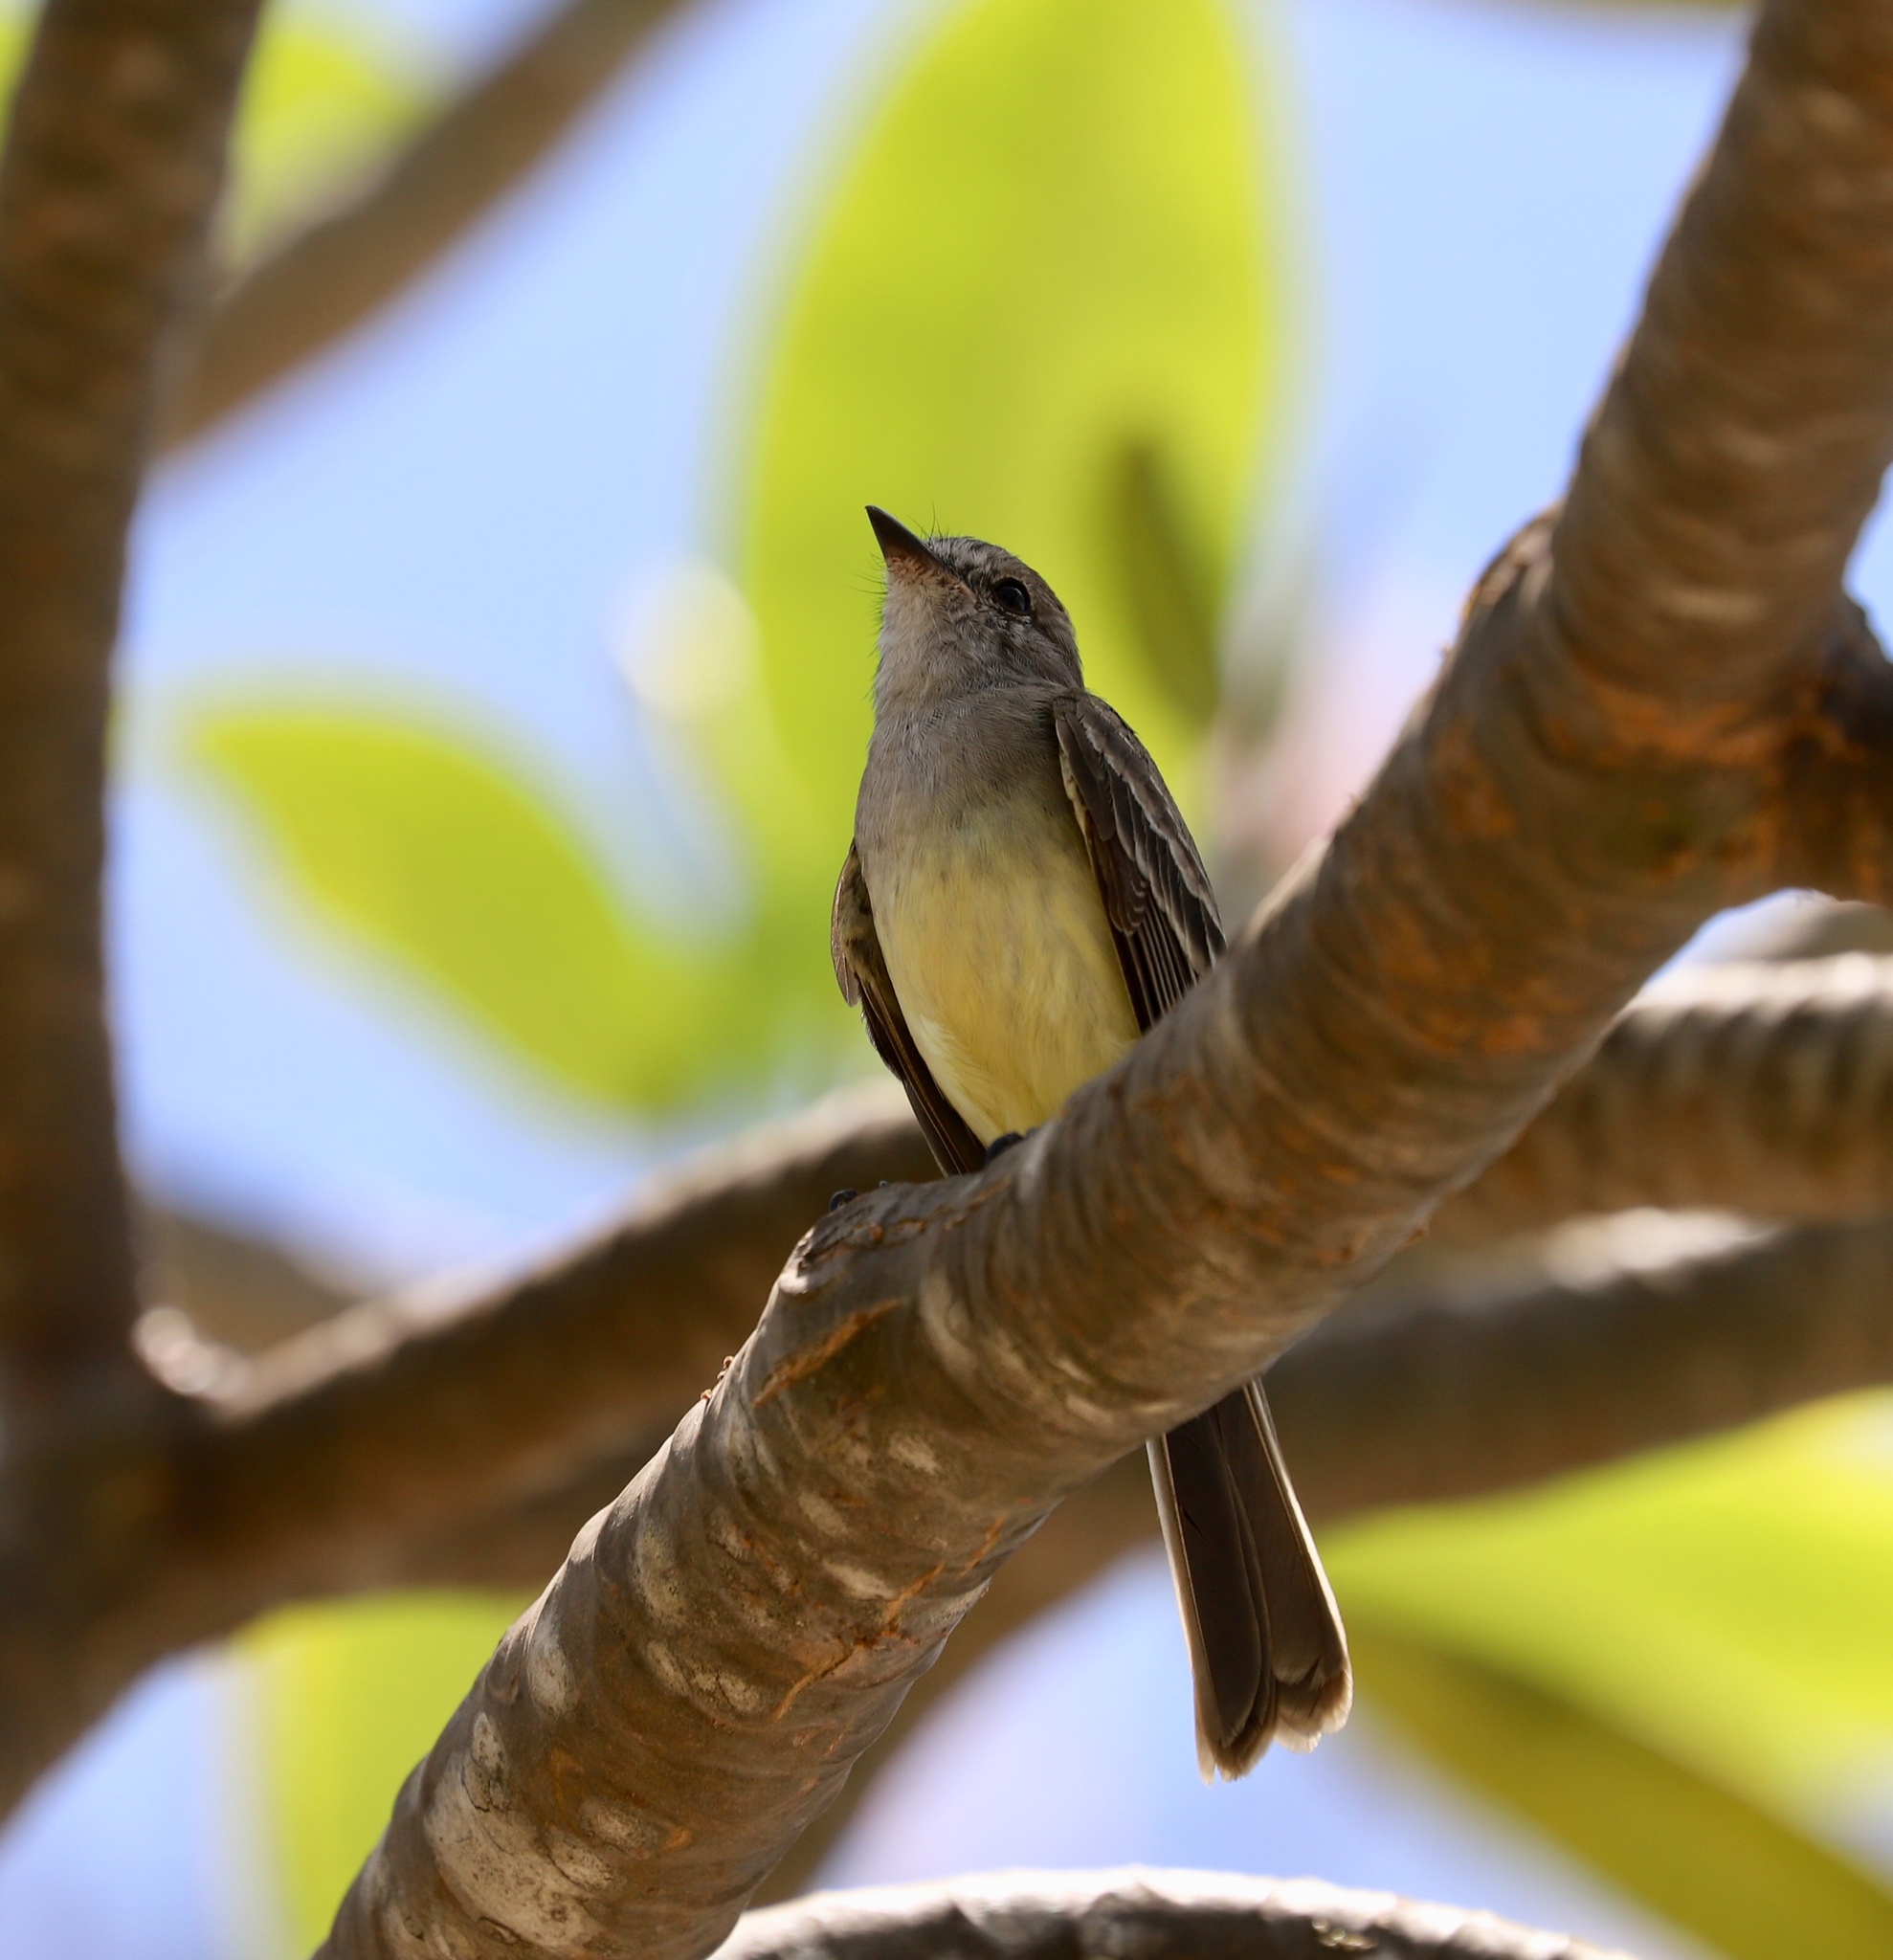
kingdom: Animalia
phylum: Chordata
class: Aves
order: Passeriformes
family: Tyrannidae
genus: Sublegatus
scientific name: Sublegatus arenarum
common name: Northern scrub-flycatcher
